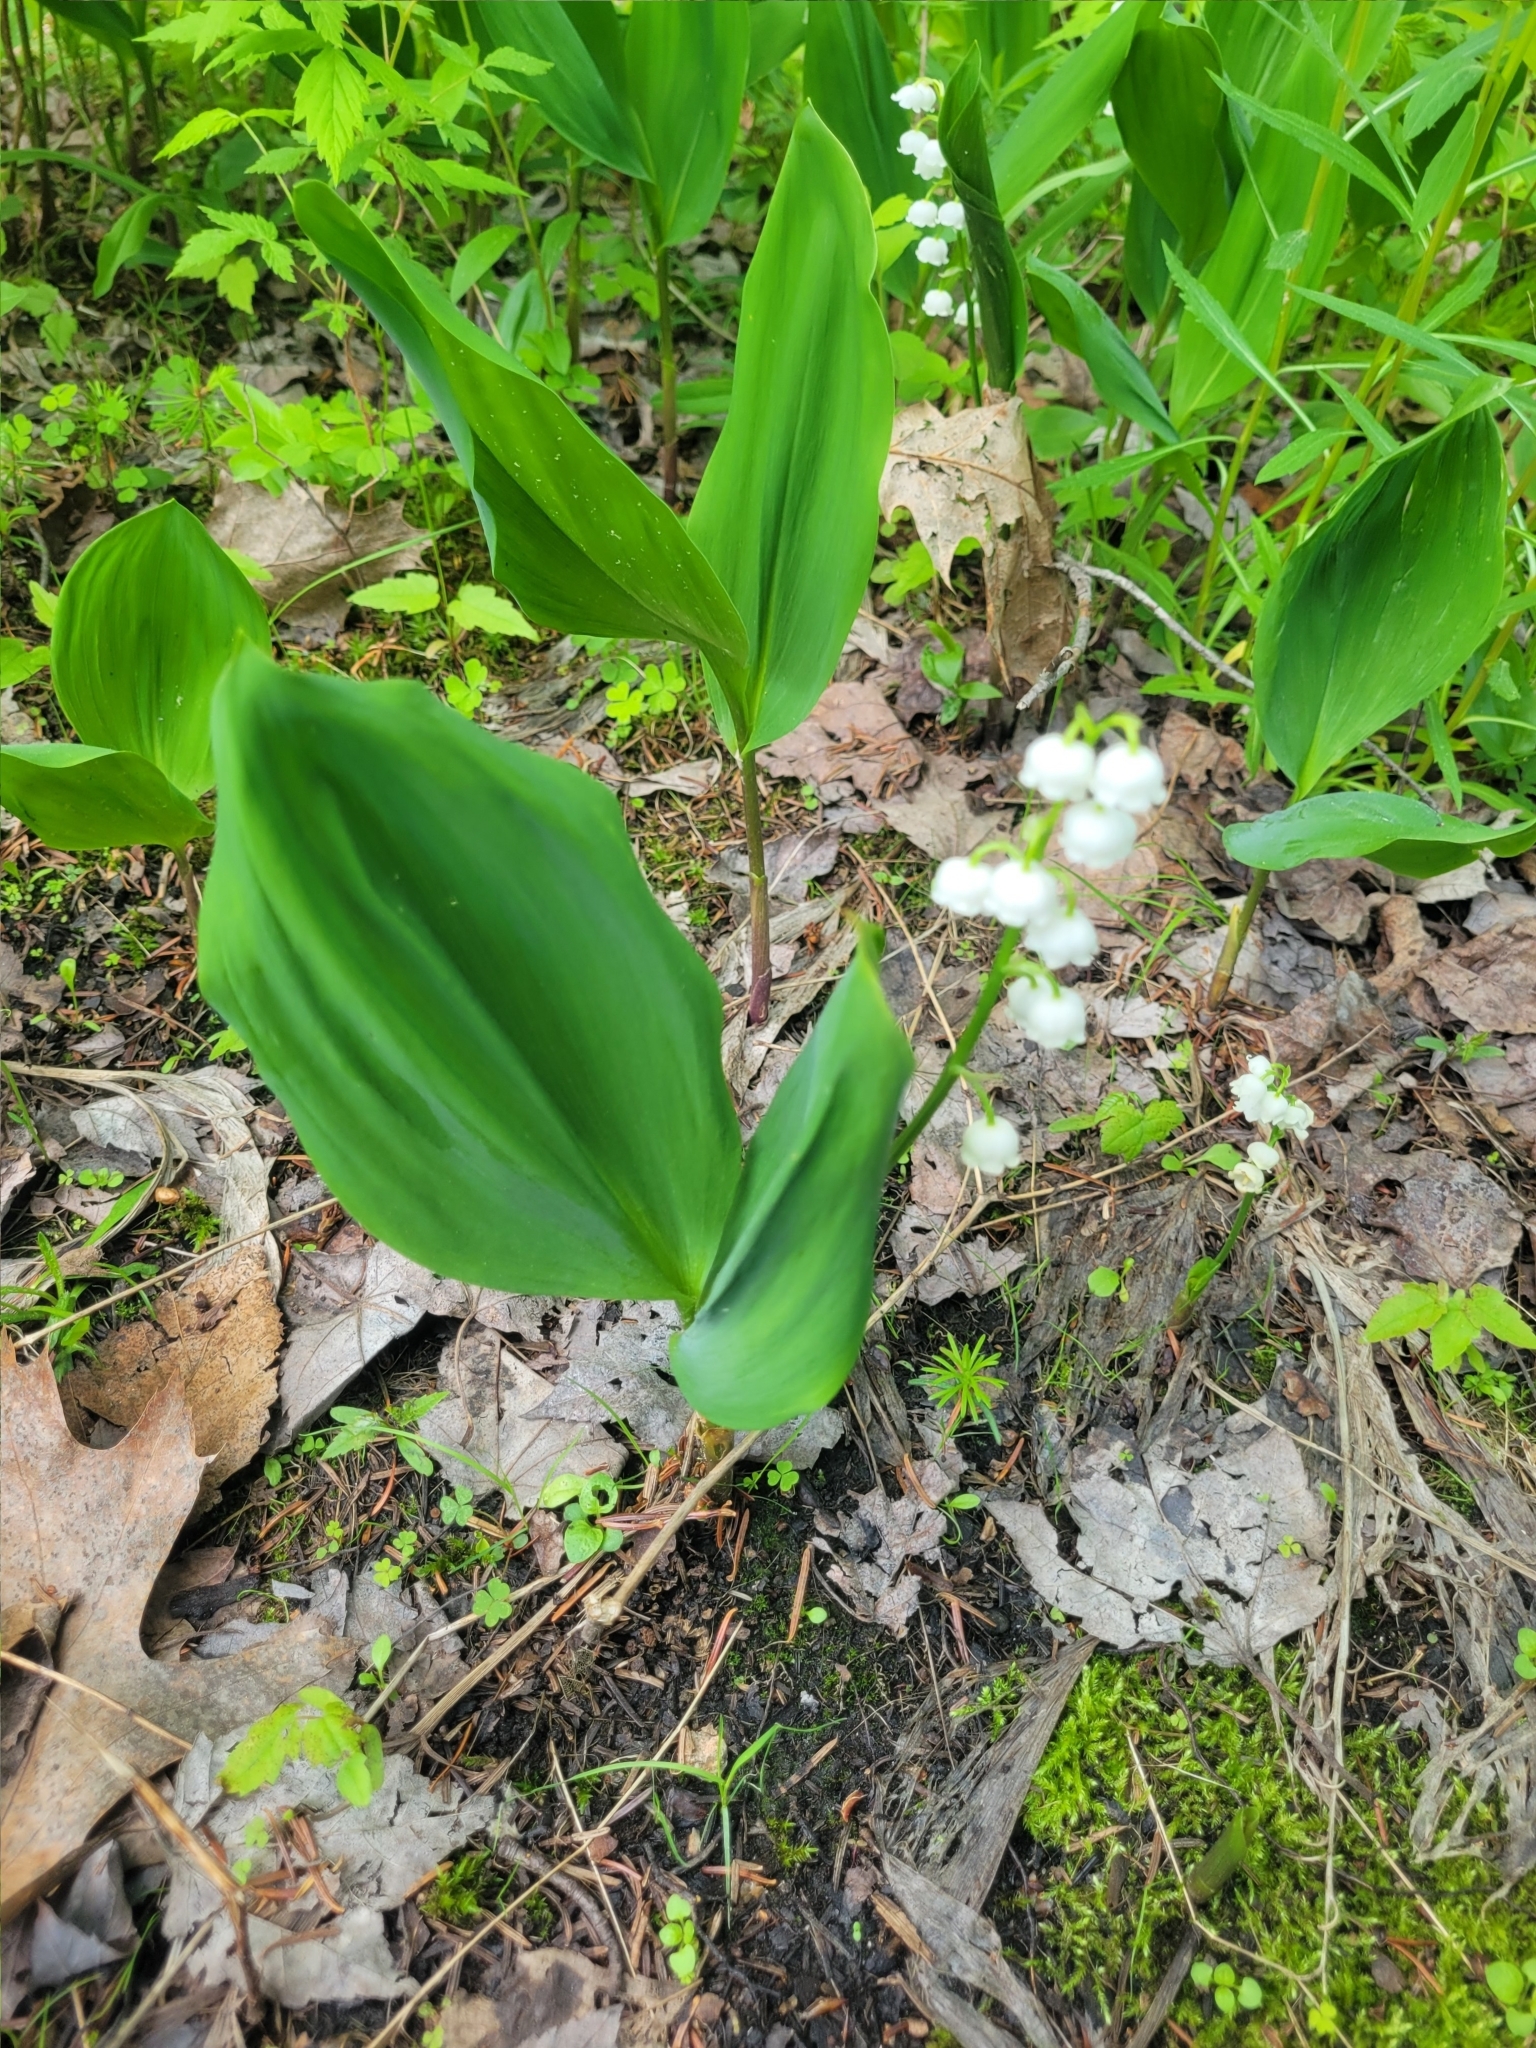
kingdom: Plantae
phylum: Tracheophyta
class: Liliopsida
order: Asparagales
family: Asparagaceae
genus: Convallaria
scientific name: Convallaria majalis
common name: Lily-of-the-valley
